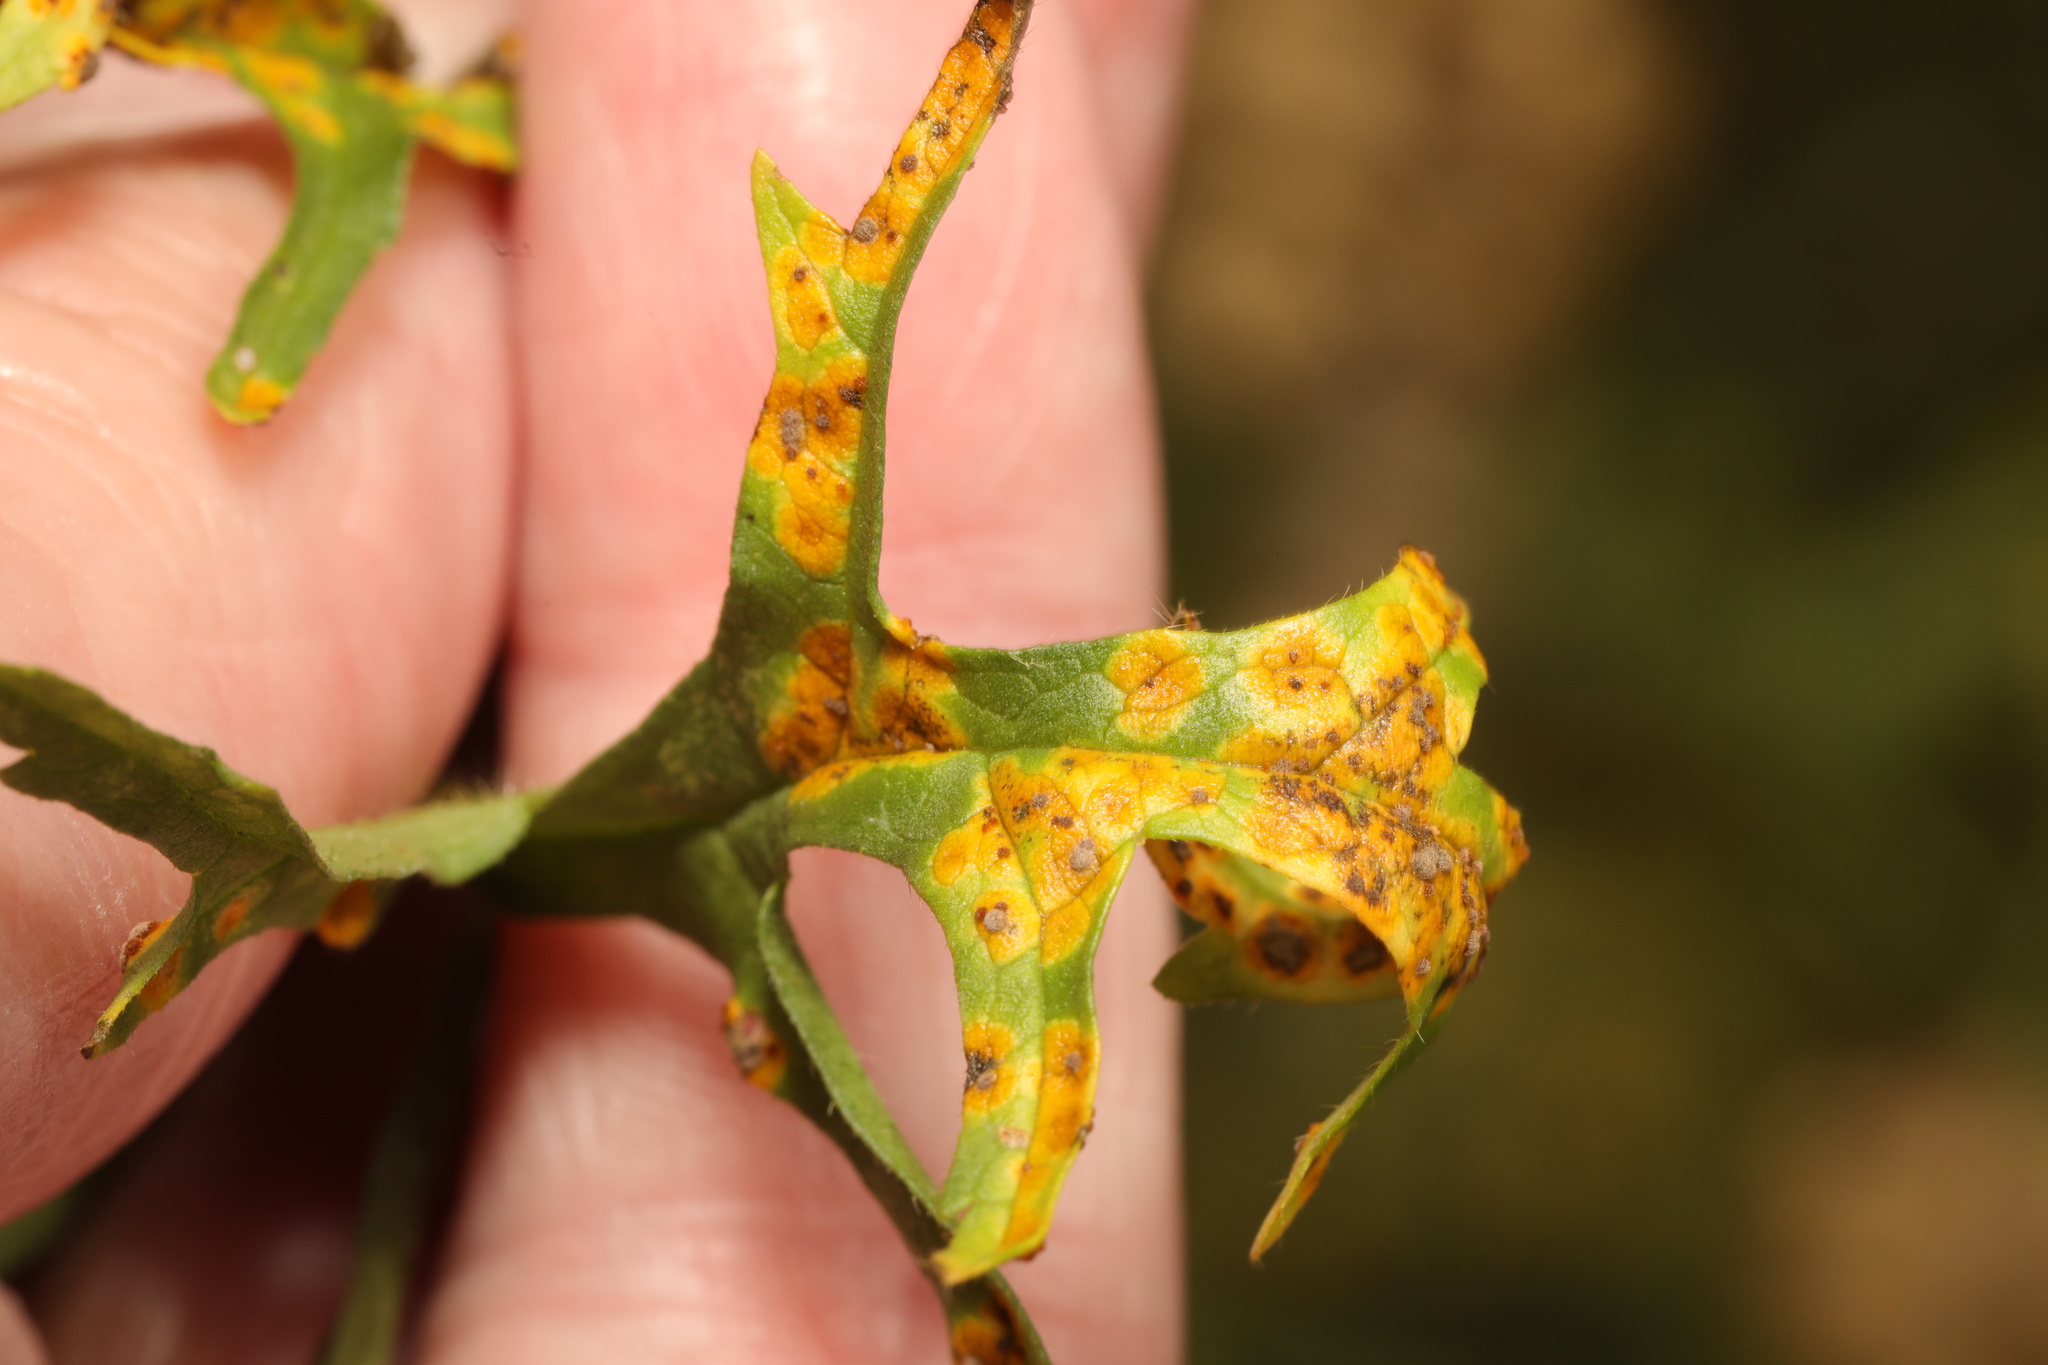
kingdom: Fungi
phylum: Basidiomycota
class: Pucciniomycetes
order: Pucciniales
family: Pucciniaceae
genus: Puccinia
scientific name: Puccinia malvacearum
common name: Hollyhock rust
